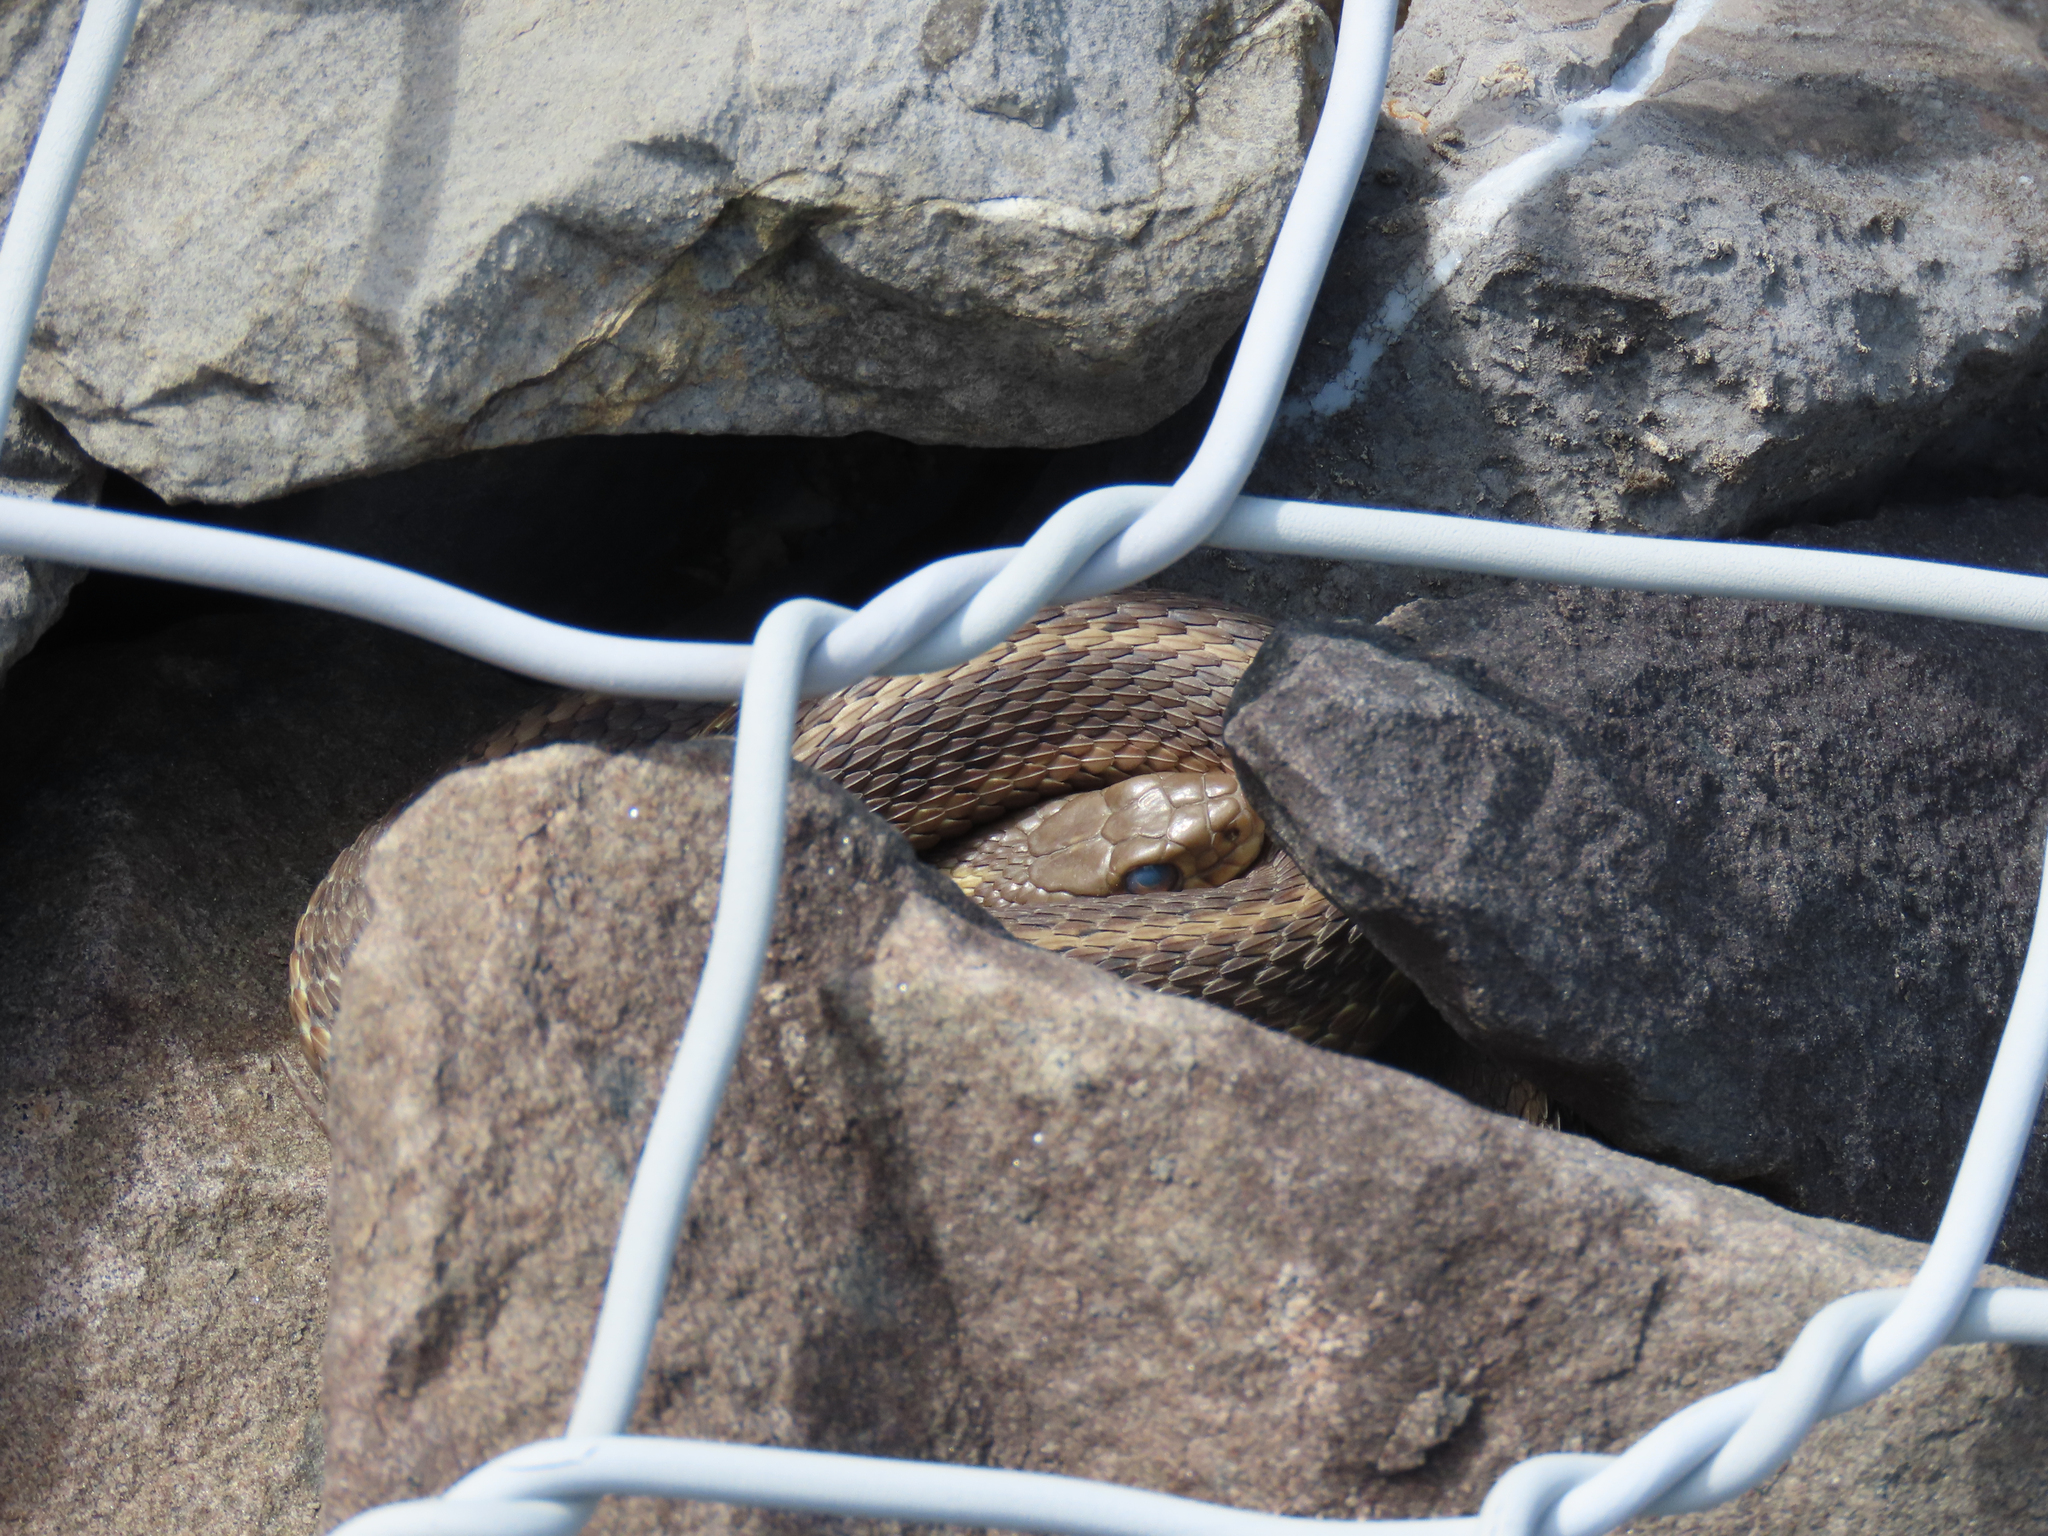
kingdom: Animalia
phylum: Chordata
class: Squamata
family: Colubridae
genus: Thamnophis
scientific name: Thamnophis sirtalis
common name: Common garter snake
